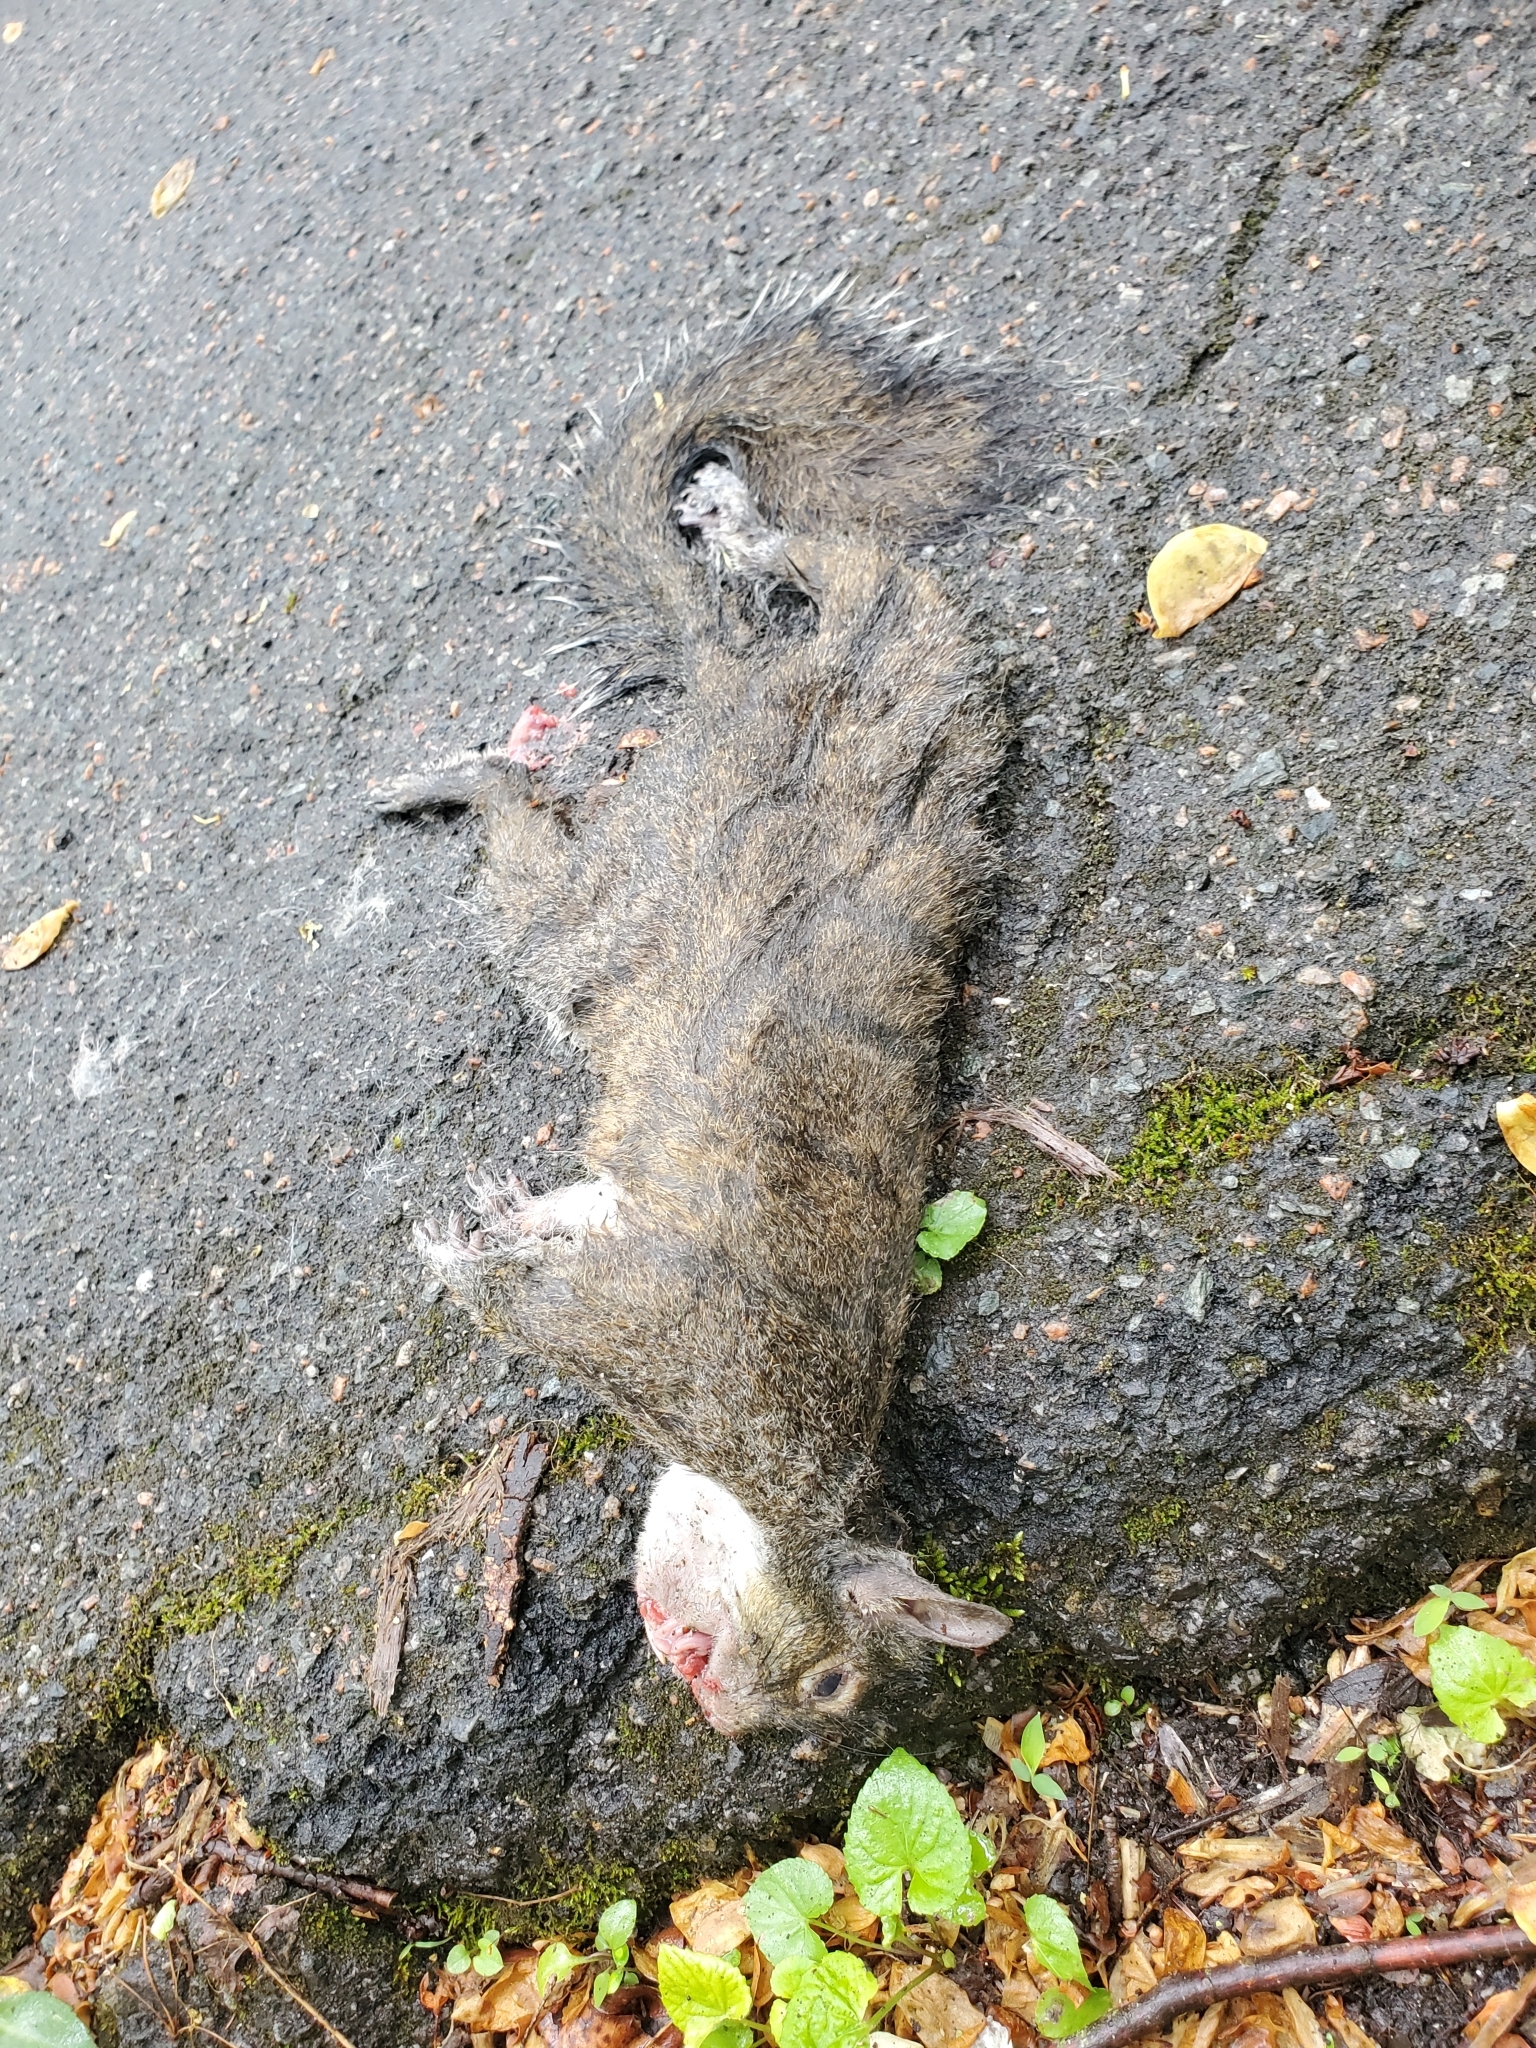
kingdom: Animalia
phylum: Chordata
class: Mammalia
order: Rodentia
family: Sciuridae
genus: Sciurus
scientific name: Sciurus carolinensis
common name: Eastern gray squirrel
